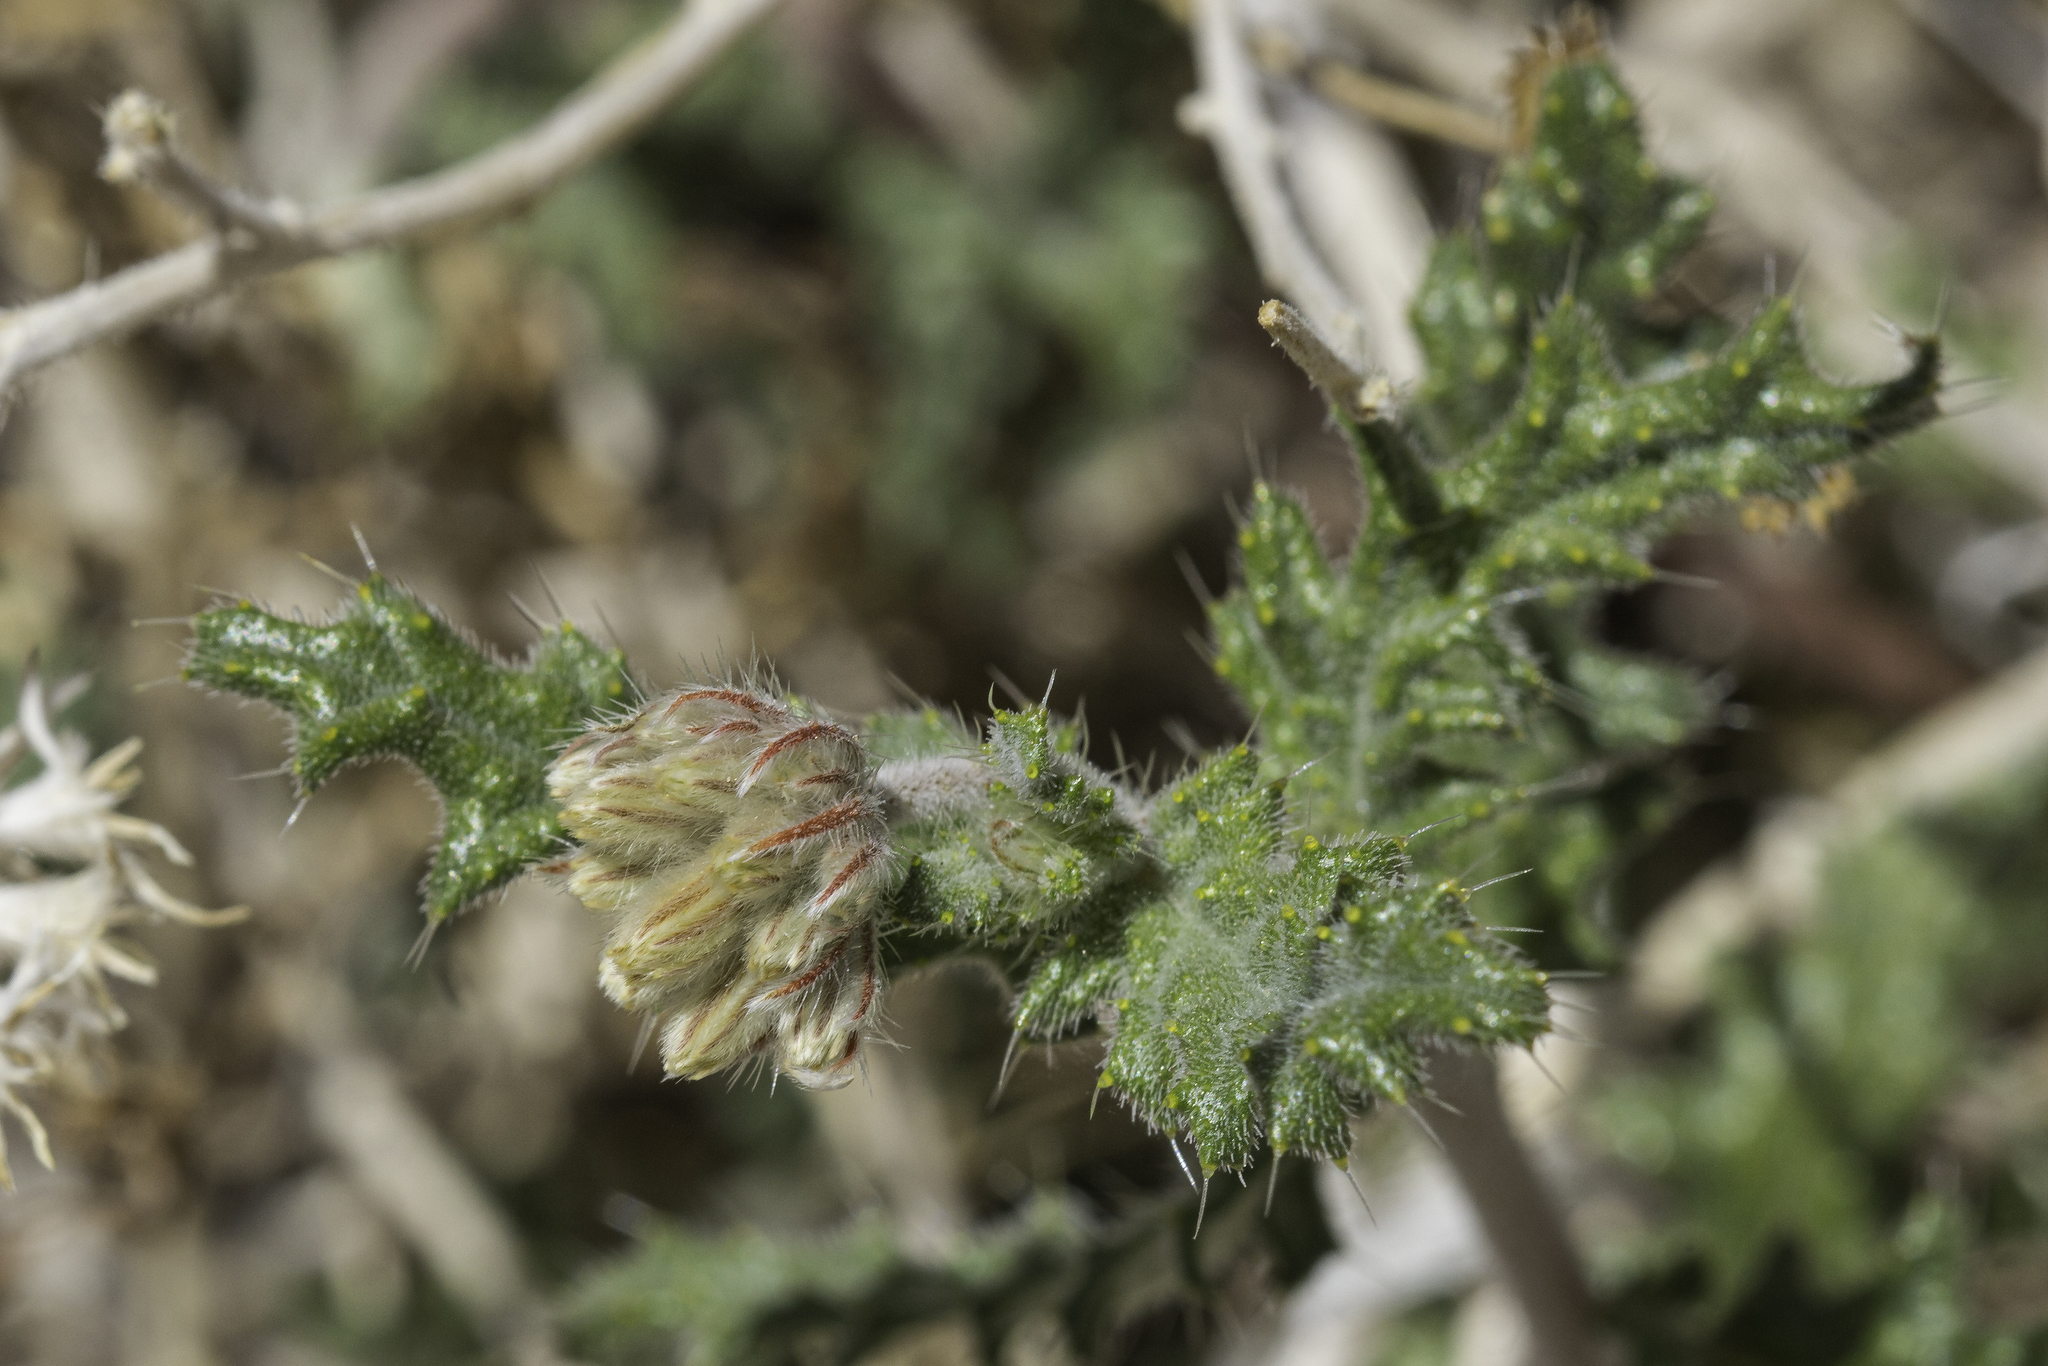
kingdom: Plantae
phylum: Tracheophyta
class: Magnoliopsida
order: Cornales
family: Loasaceae
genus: Cevallia
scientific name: Cevallia sinuata
